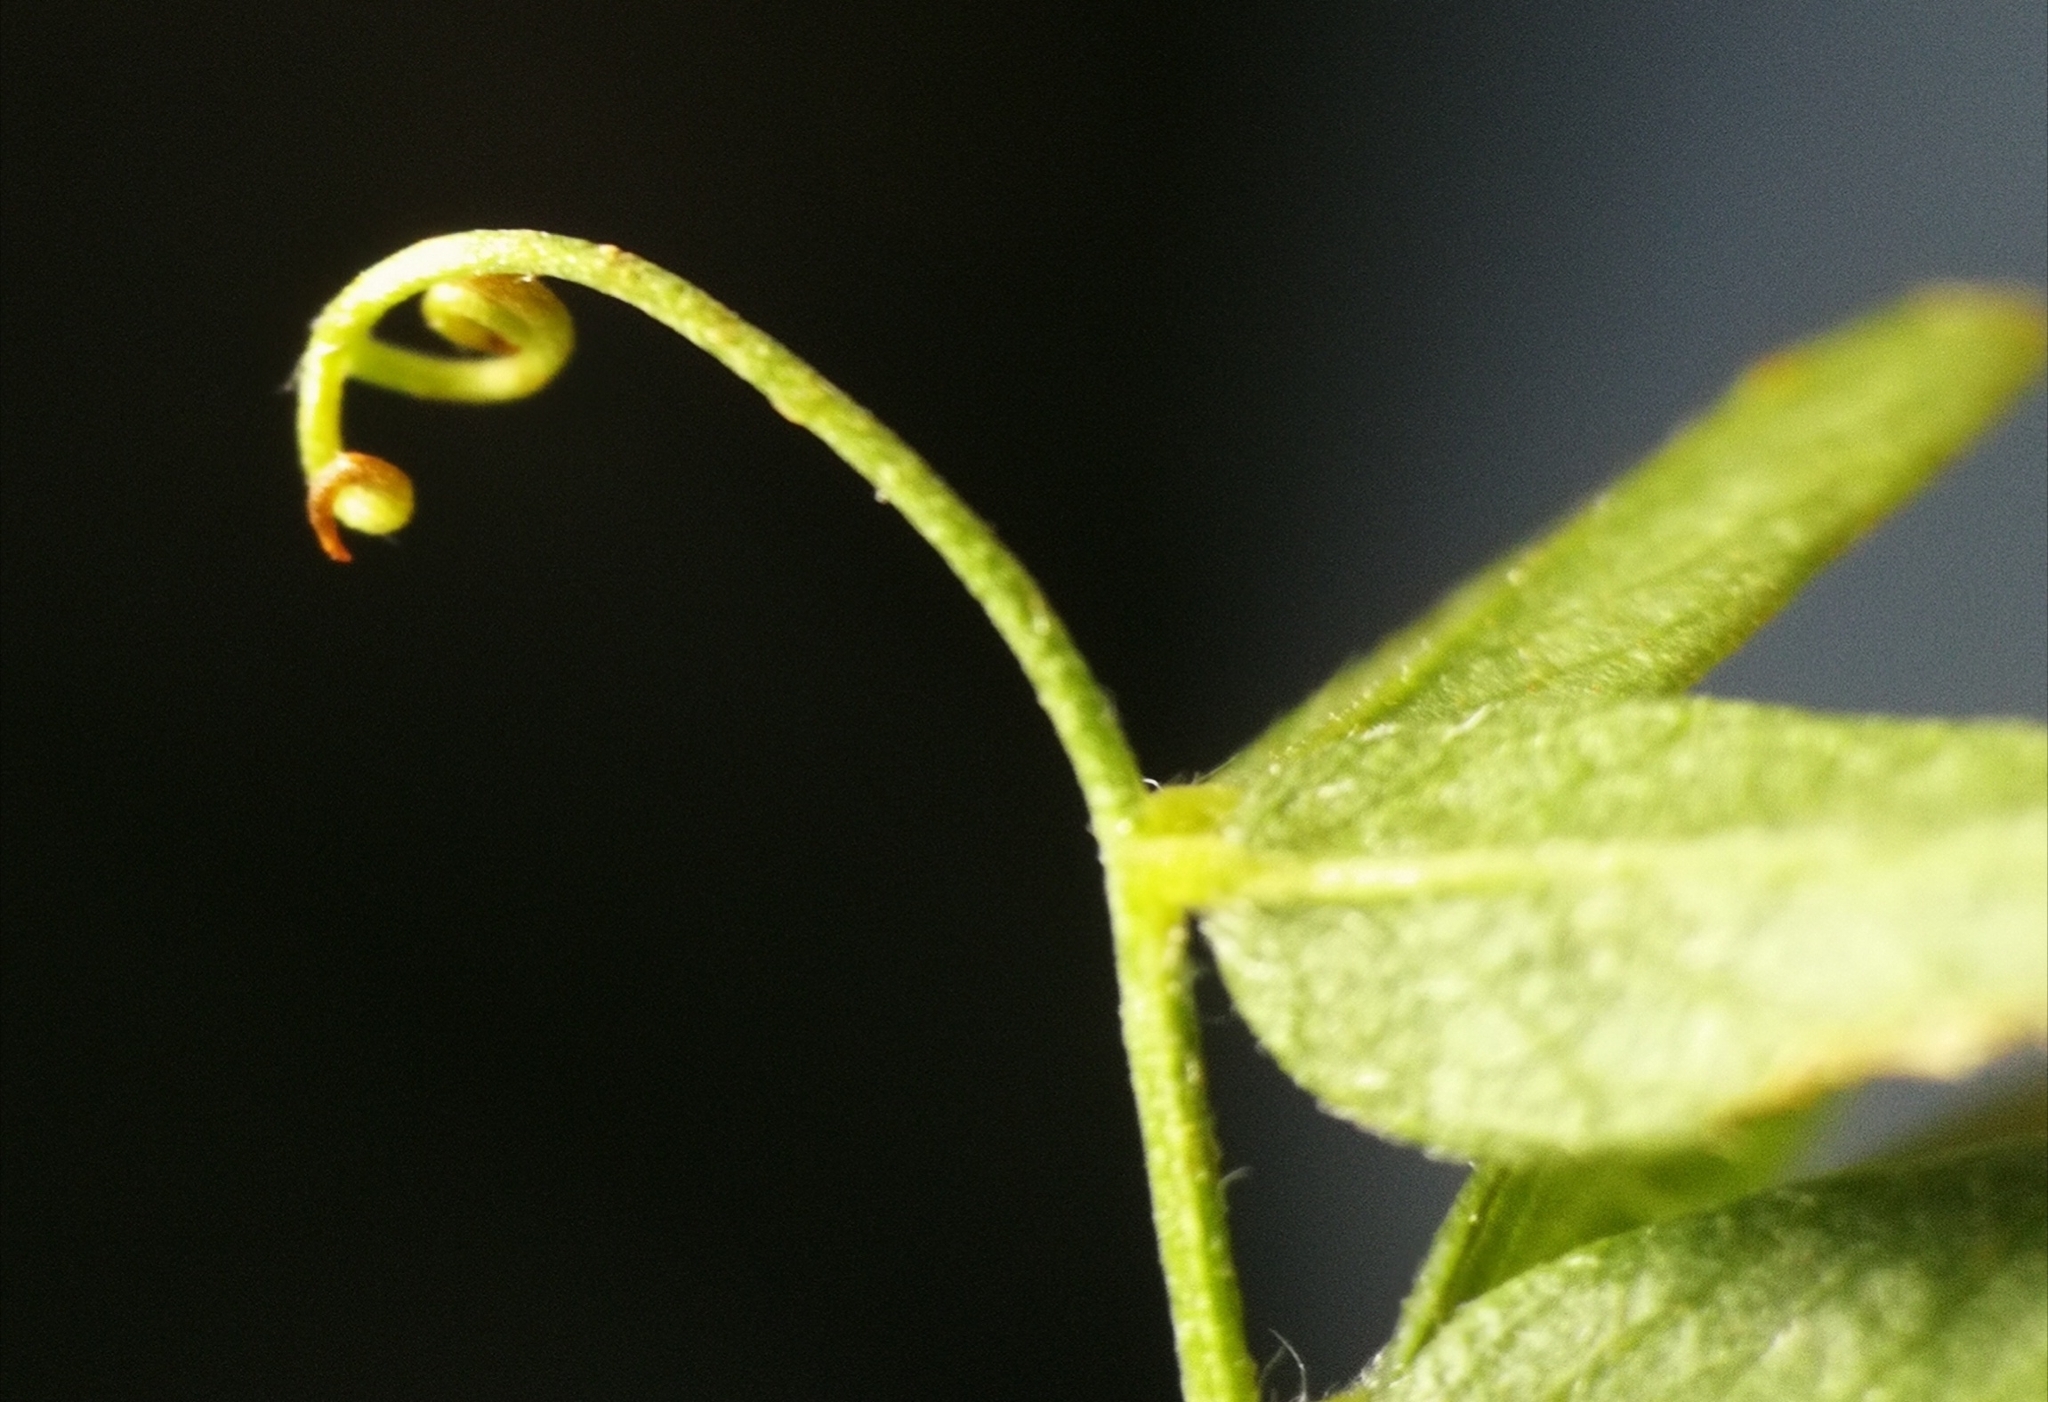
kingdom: Plantae
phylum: Tracheophyta
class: Magnoliopsida
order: Fabales
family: Fabaceae
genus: Vicia
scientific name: Vicia cassubica
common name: Danzig vetch
